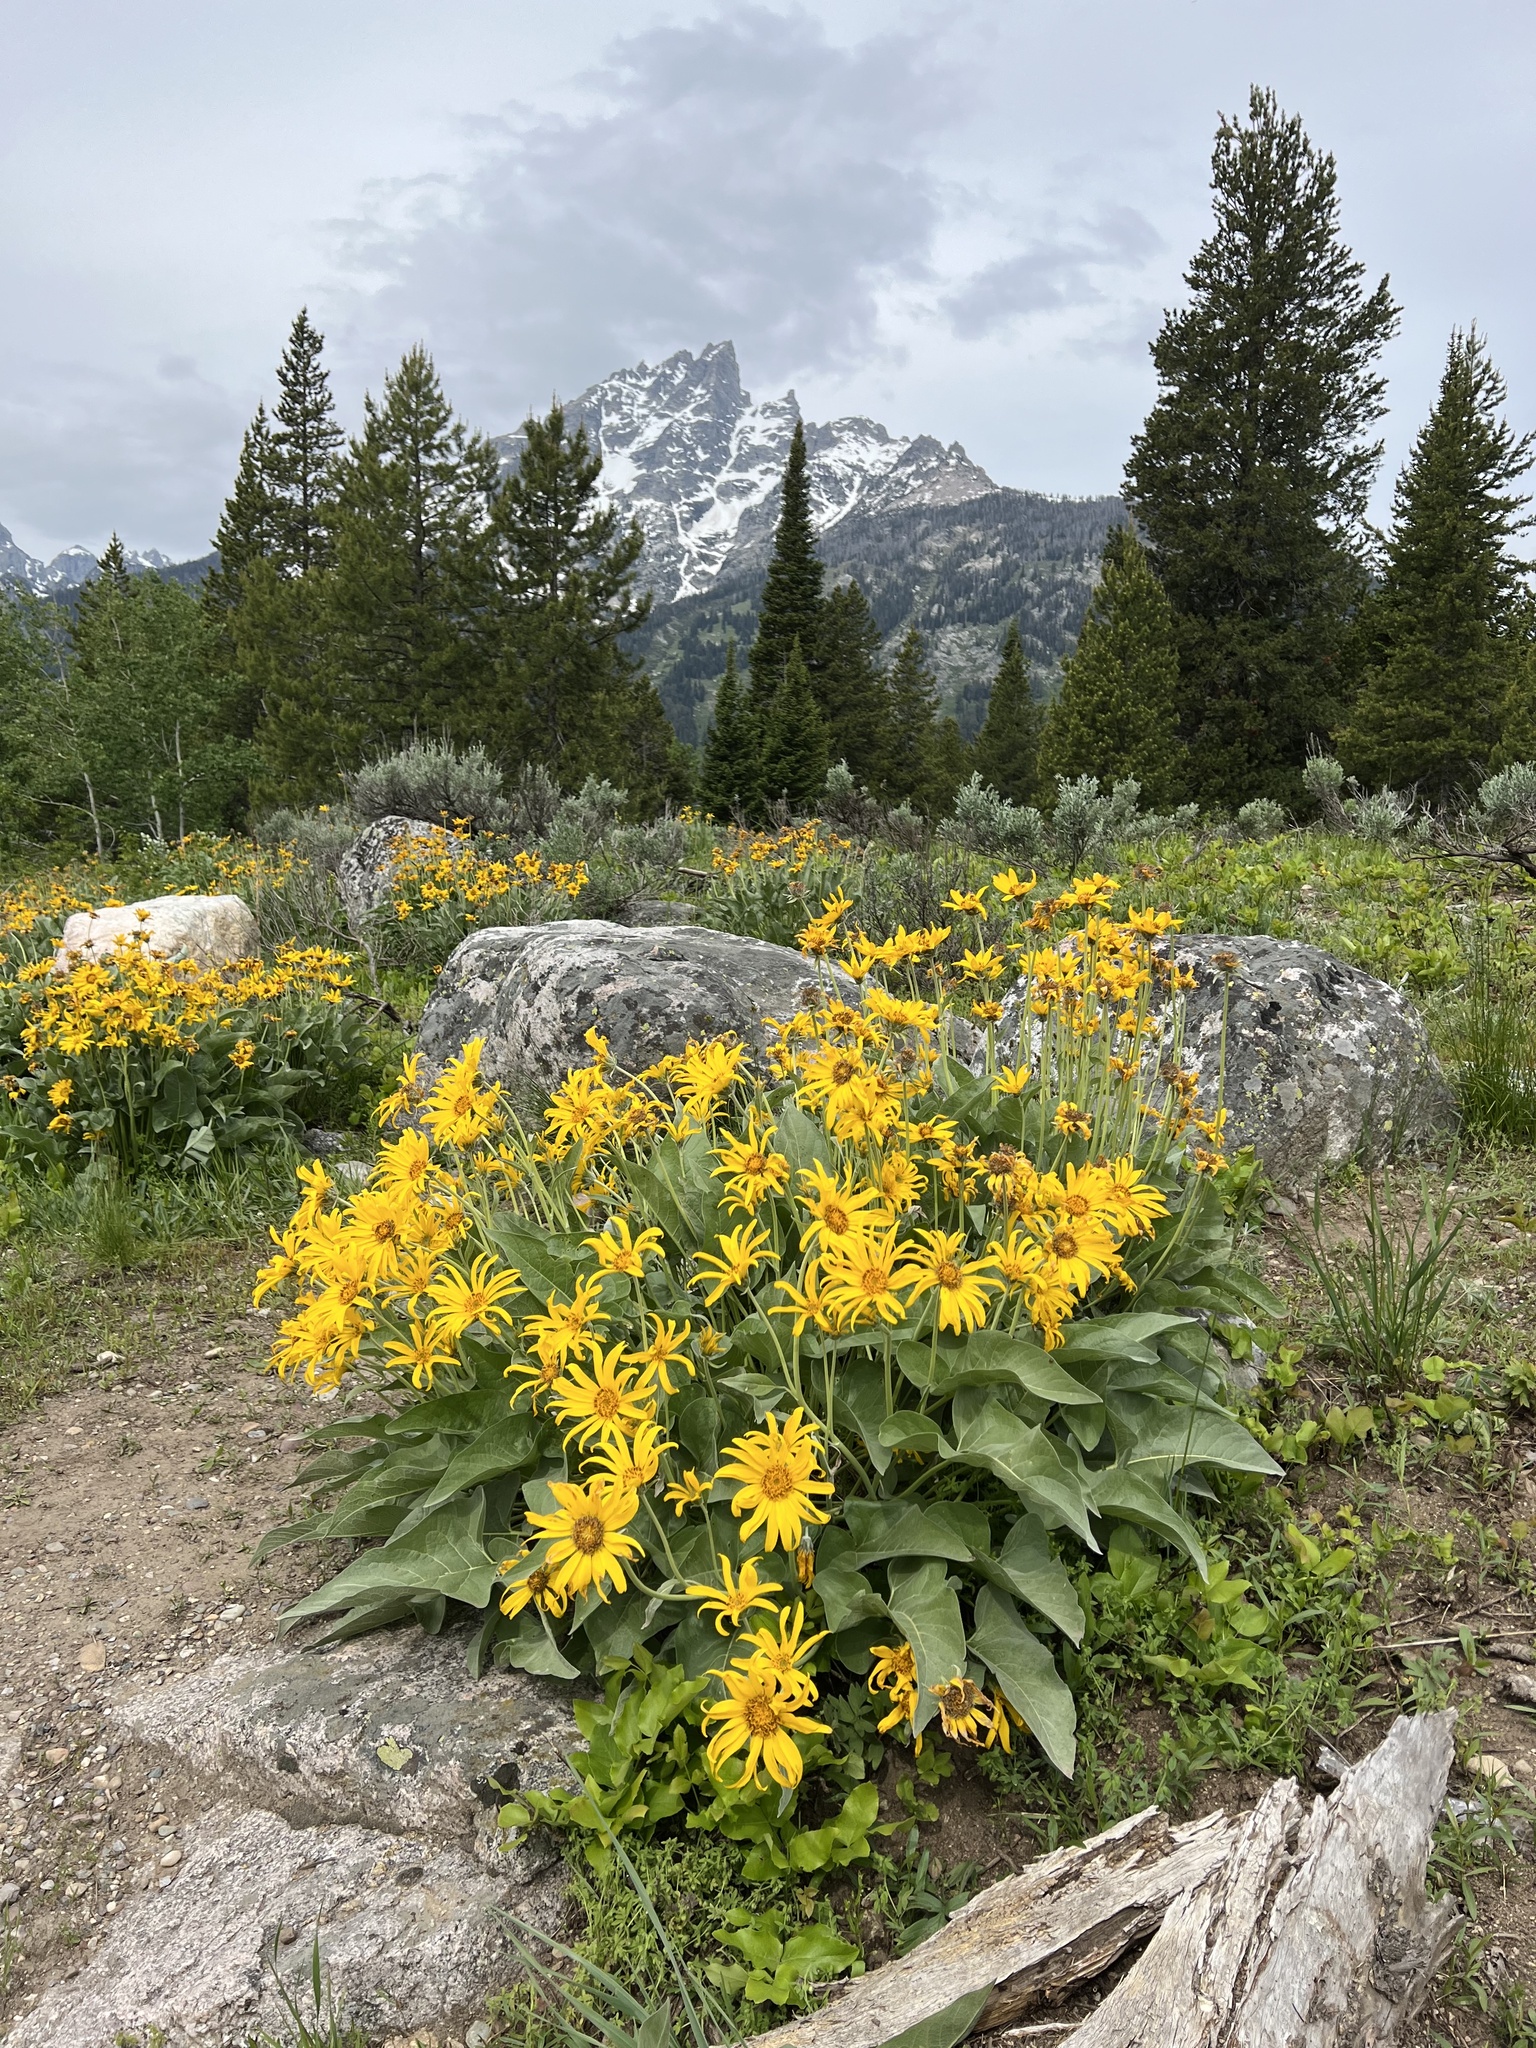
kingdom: Plantae
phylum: Tracheophyta
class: Magnoliopsida
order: Asterales
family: Asteraceae
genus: Wyethia
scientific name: Wyethia sagittata
